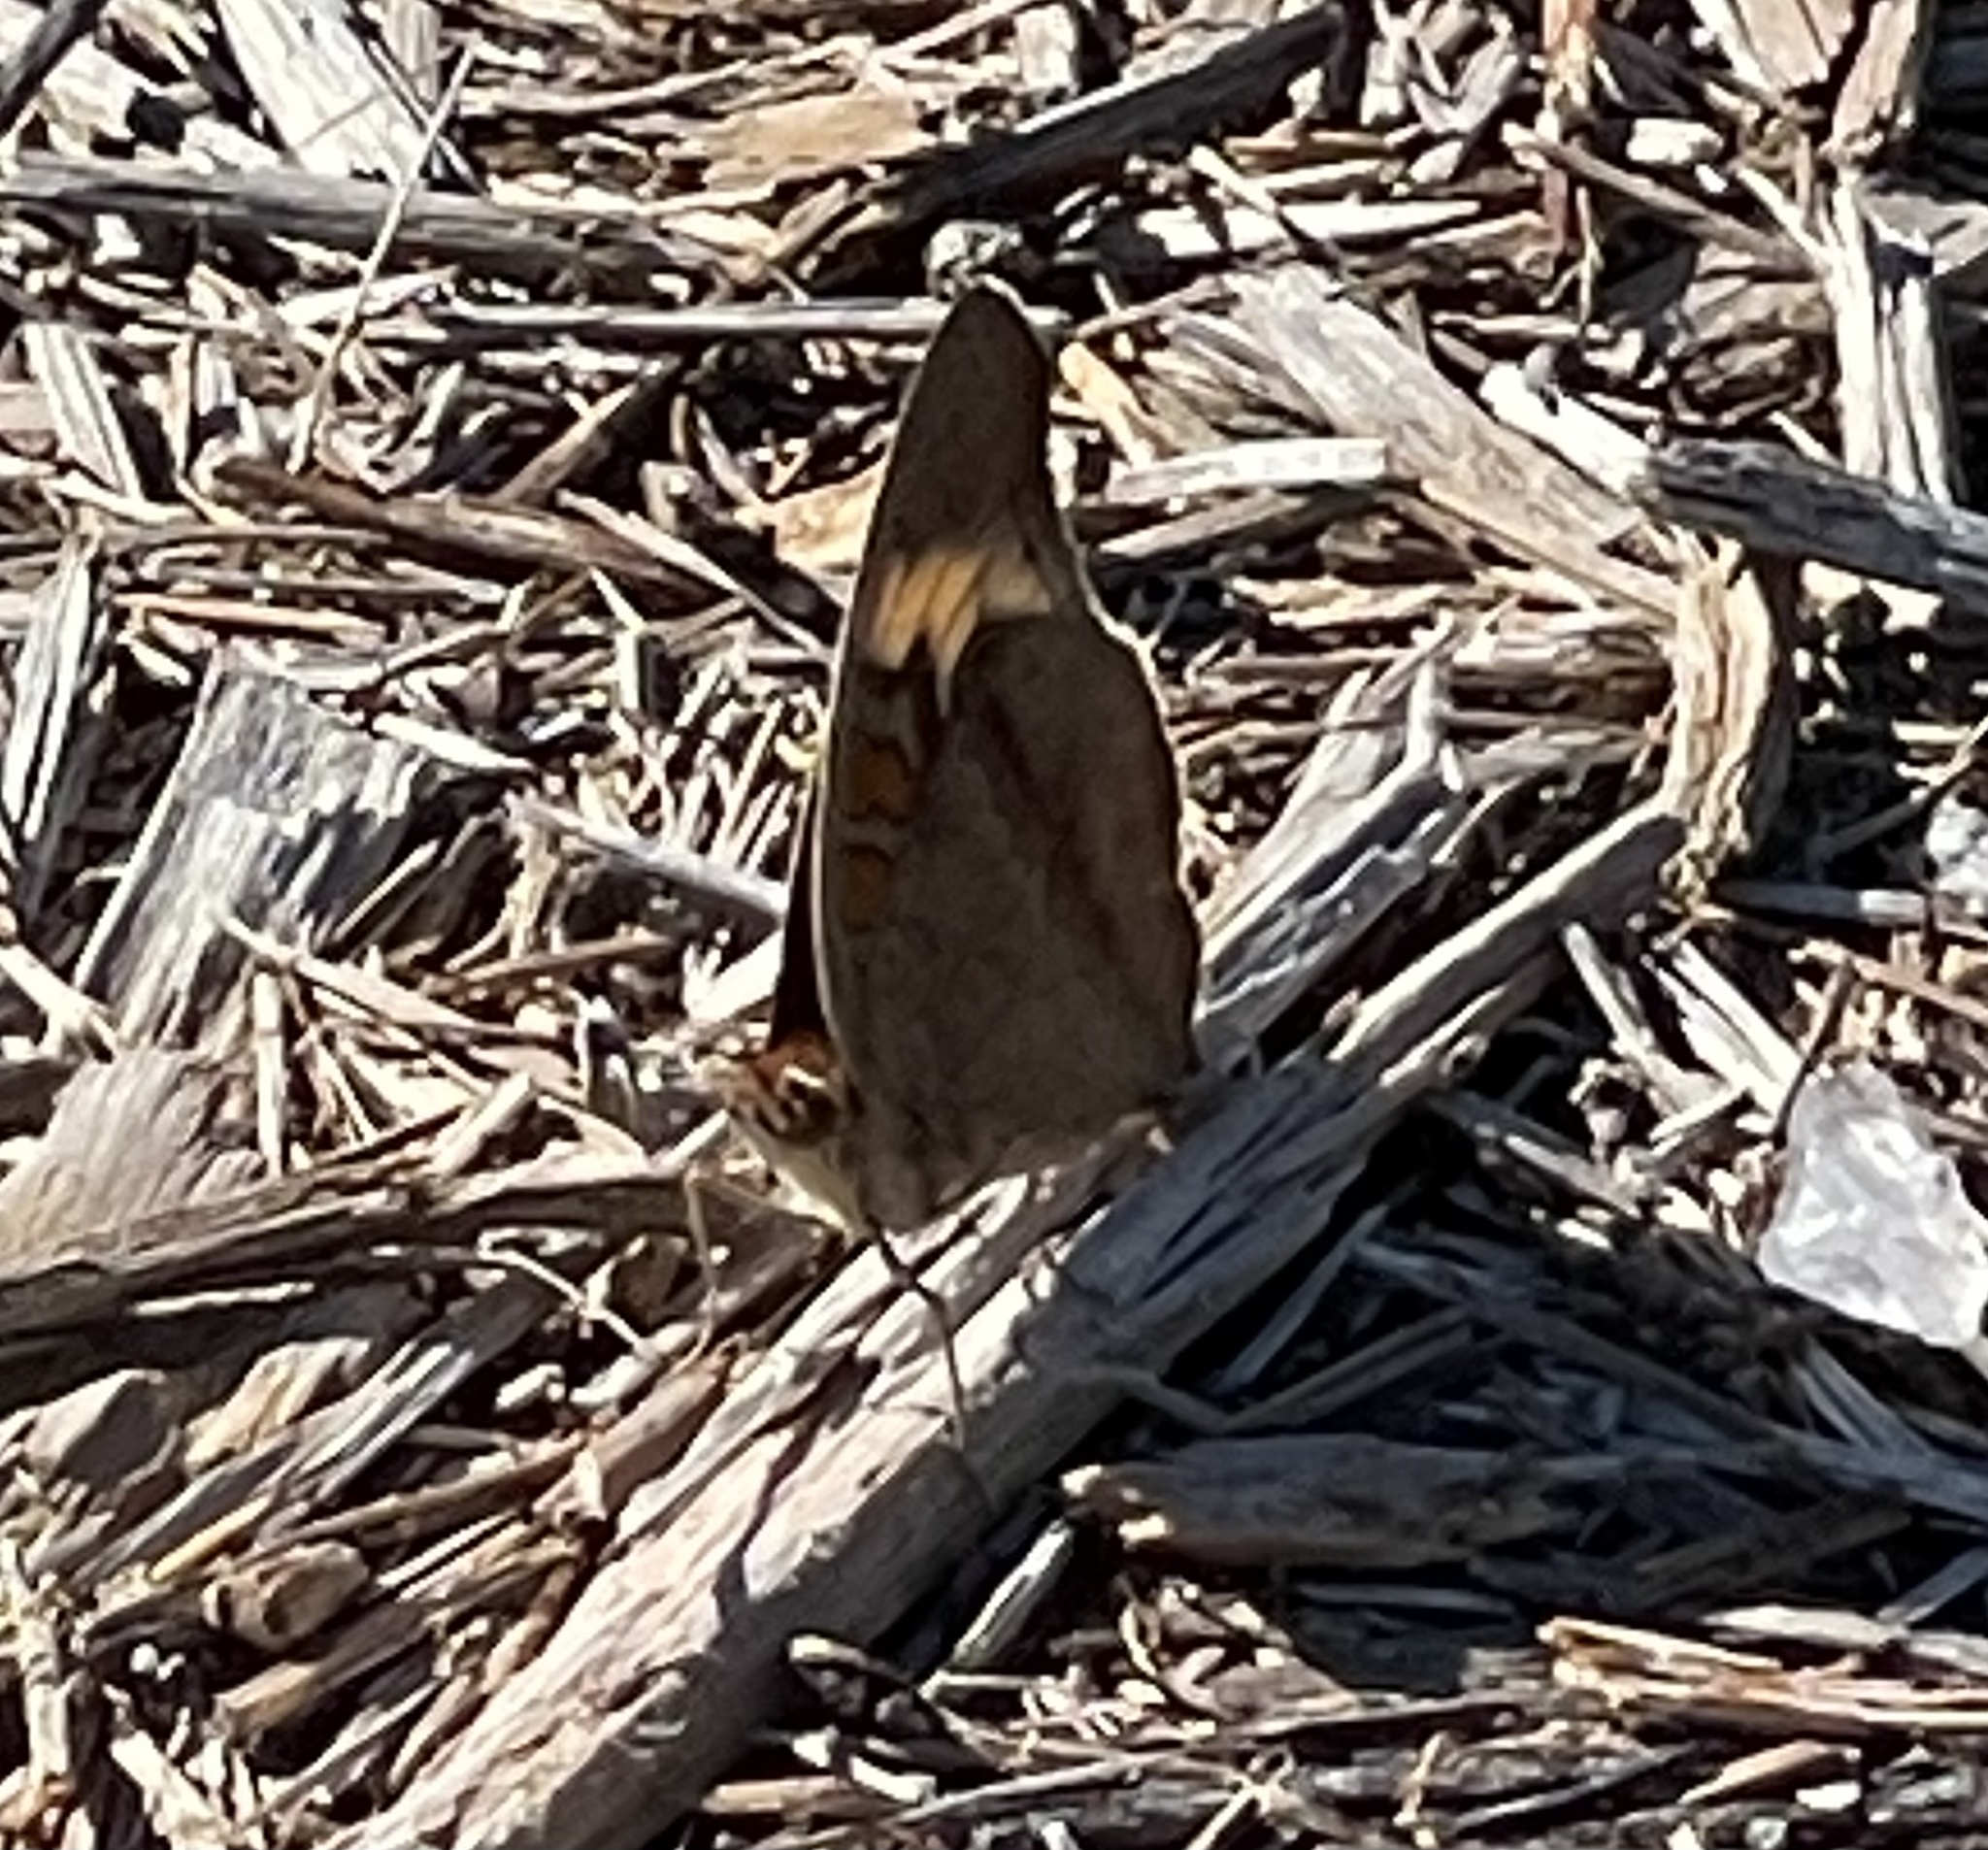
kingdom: Animalia
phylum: Arthropoda
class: Insecta
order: Lepidoptera
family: Nymphalidae
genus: Junonia
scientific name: Junonia coenia
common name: Common buckeye
